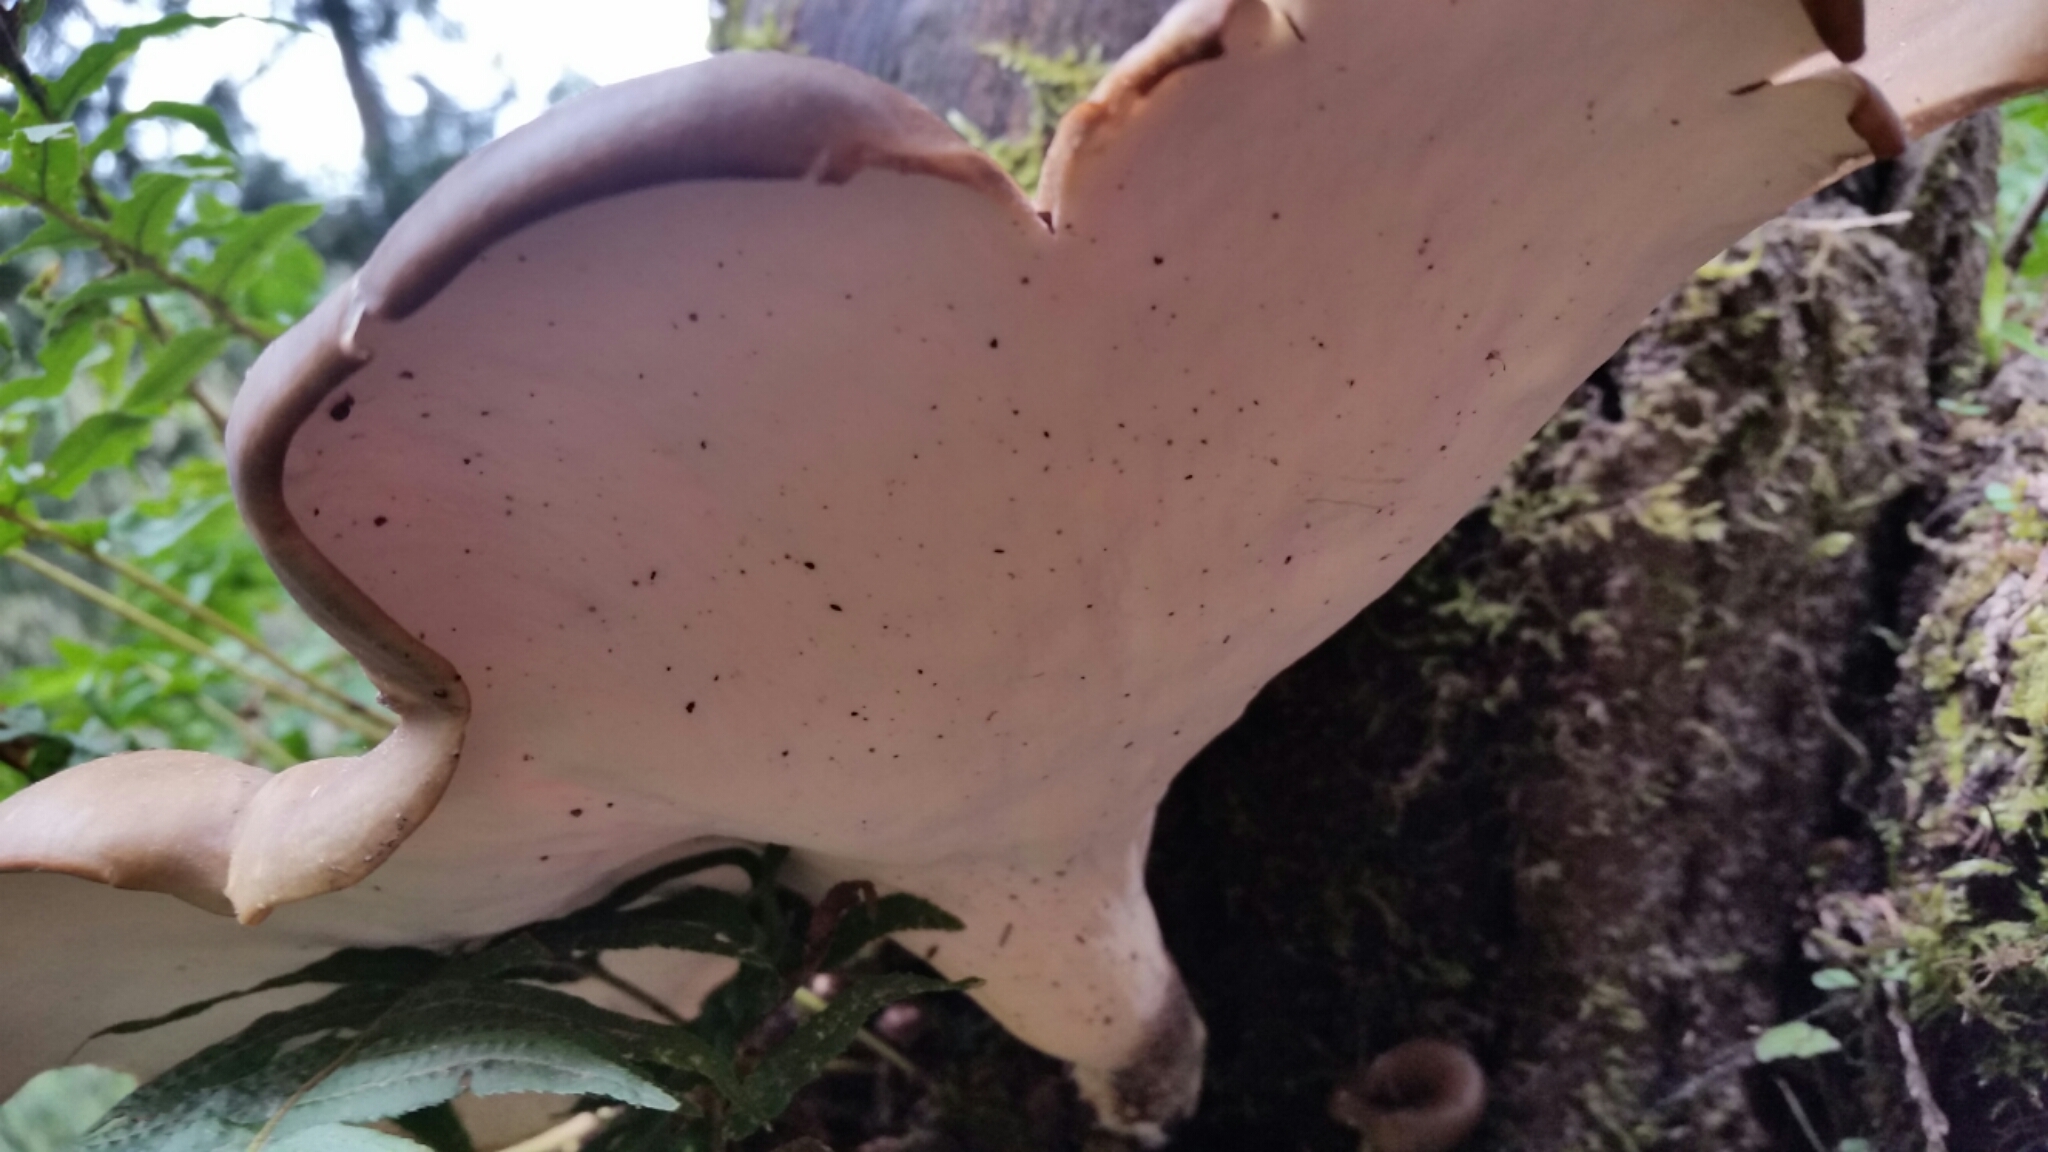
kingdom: Fungi
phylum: Basidiomycota
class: Agaricomycetes
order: Polyporales
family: Polyporaceae
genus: Picipes
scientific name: Picipes badius
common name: Bay polypore
